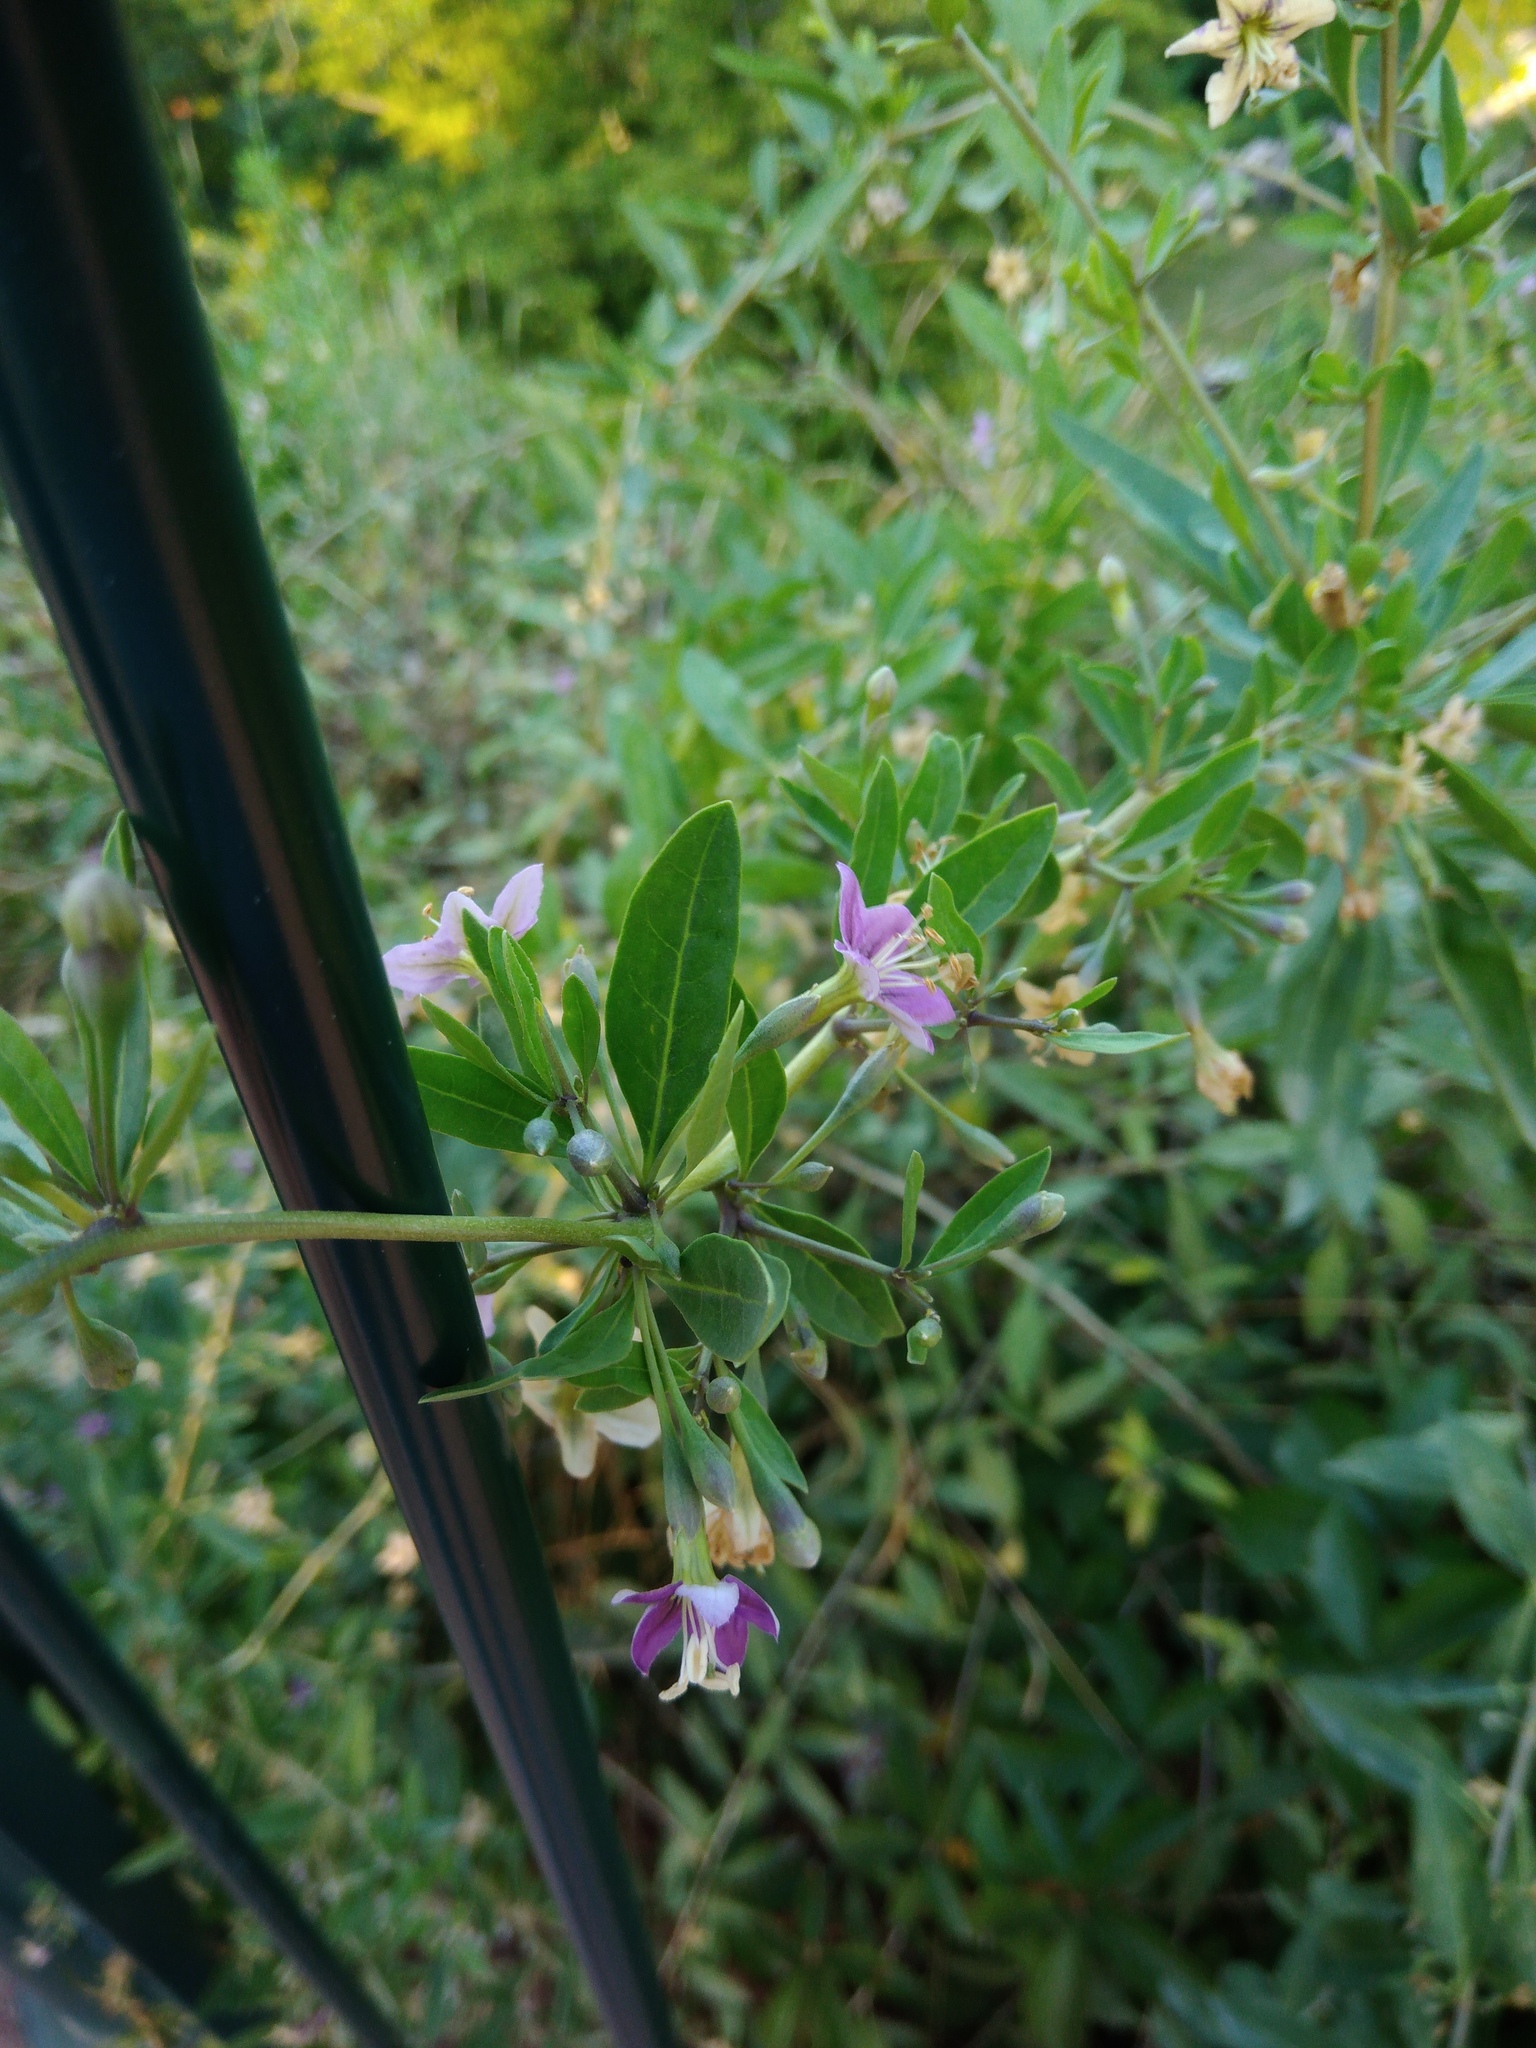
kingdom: Plantae
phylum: Tracheophyta
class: Magnoliopsida
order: Solanales
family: Solanaceae
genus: Lycium
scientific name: Lycium barbarum
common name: Duke of argyll's teaplant
